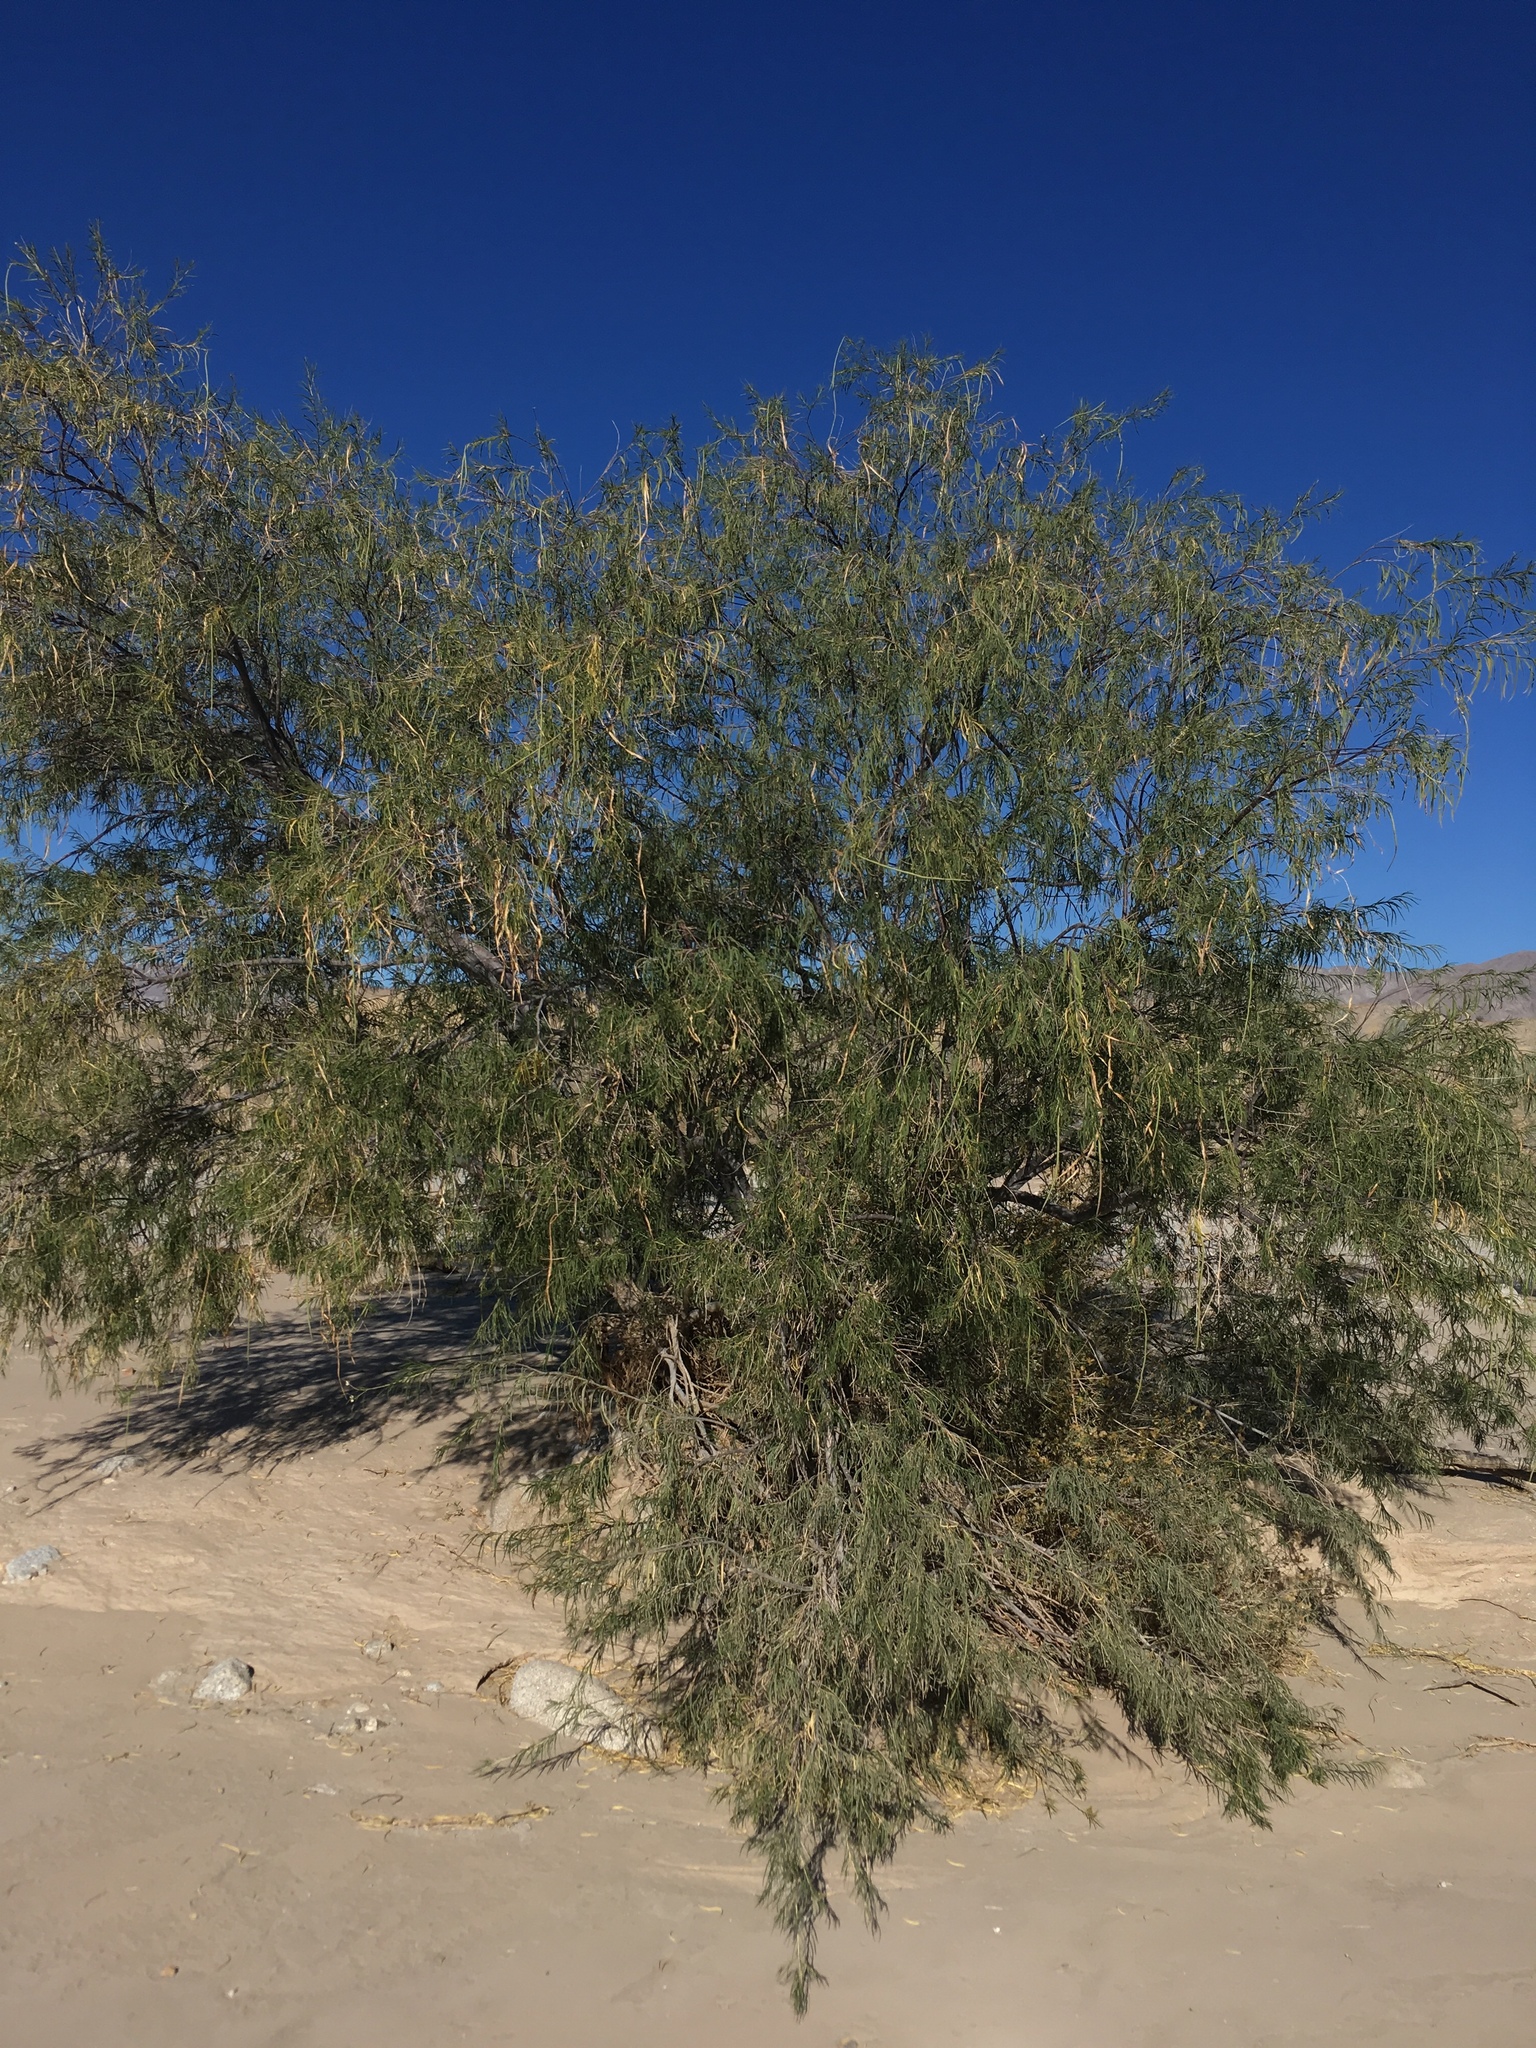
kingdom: Plantae
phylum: Tracheophyta
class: Magnoliopsida
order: Lamiales
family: Bignoniaceae
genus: Chilopsis
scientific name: Chilopsis linearis
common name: Desert-willow
